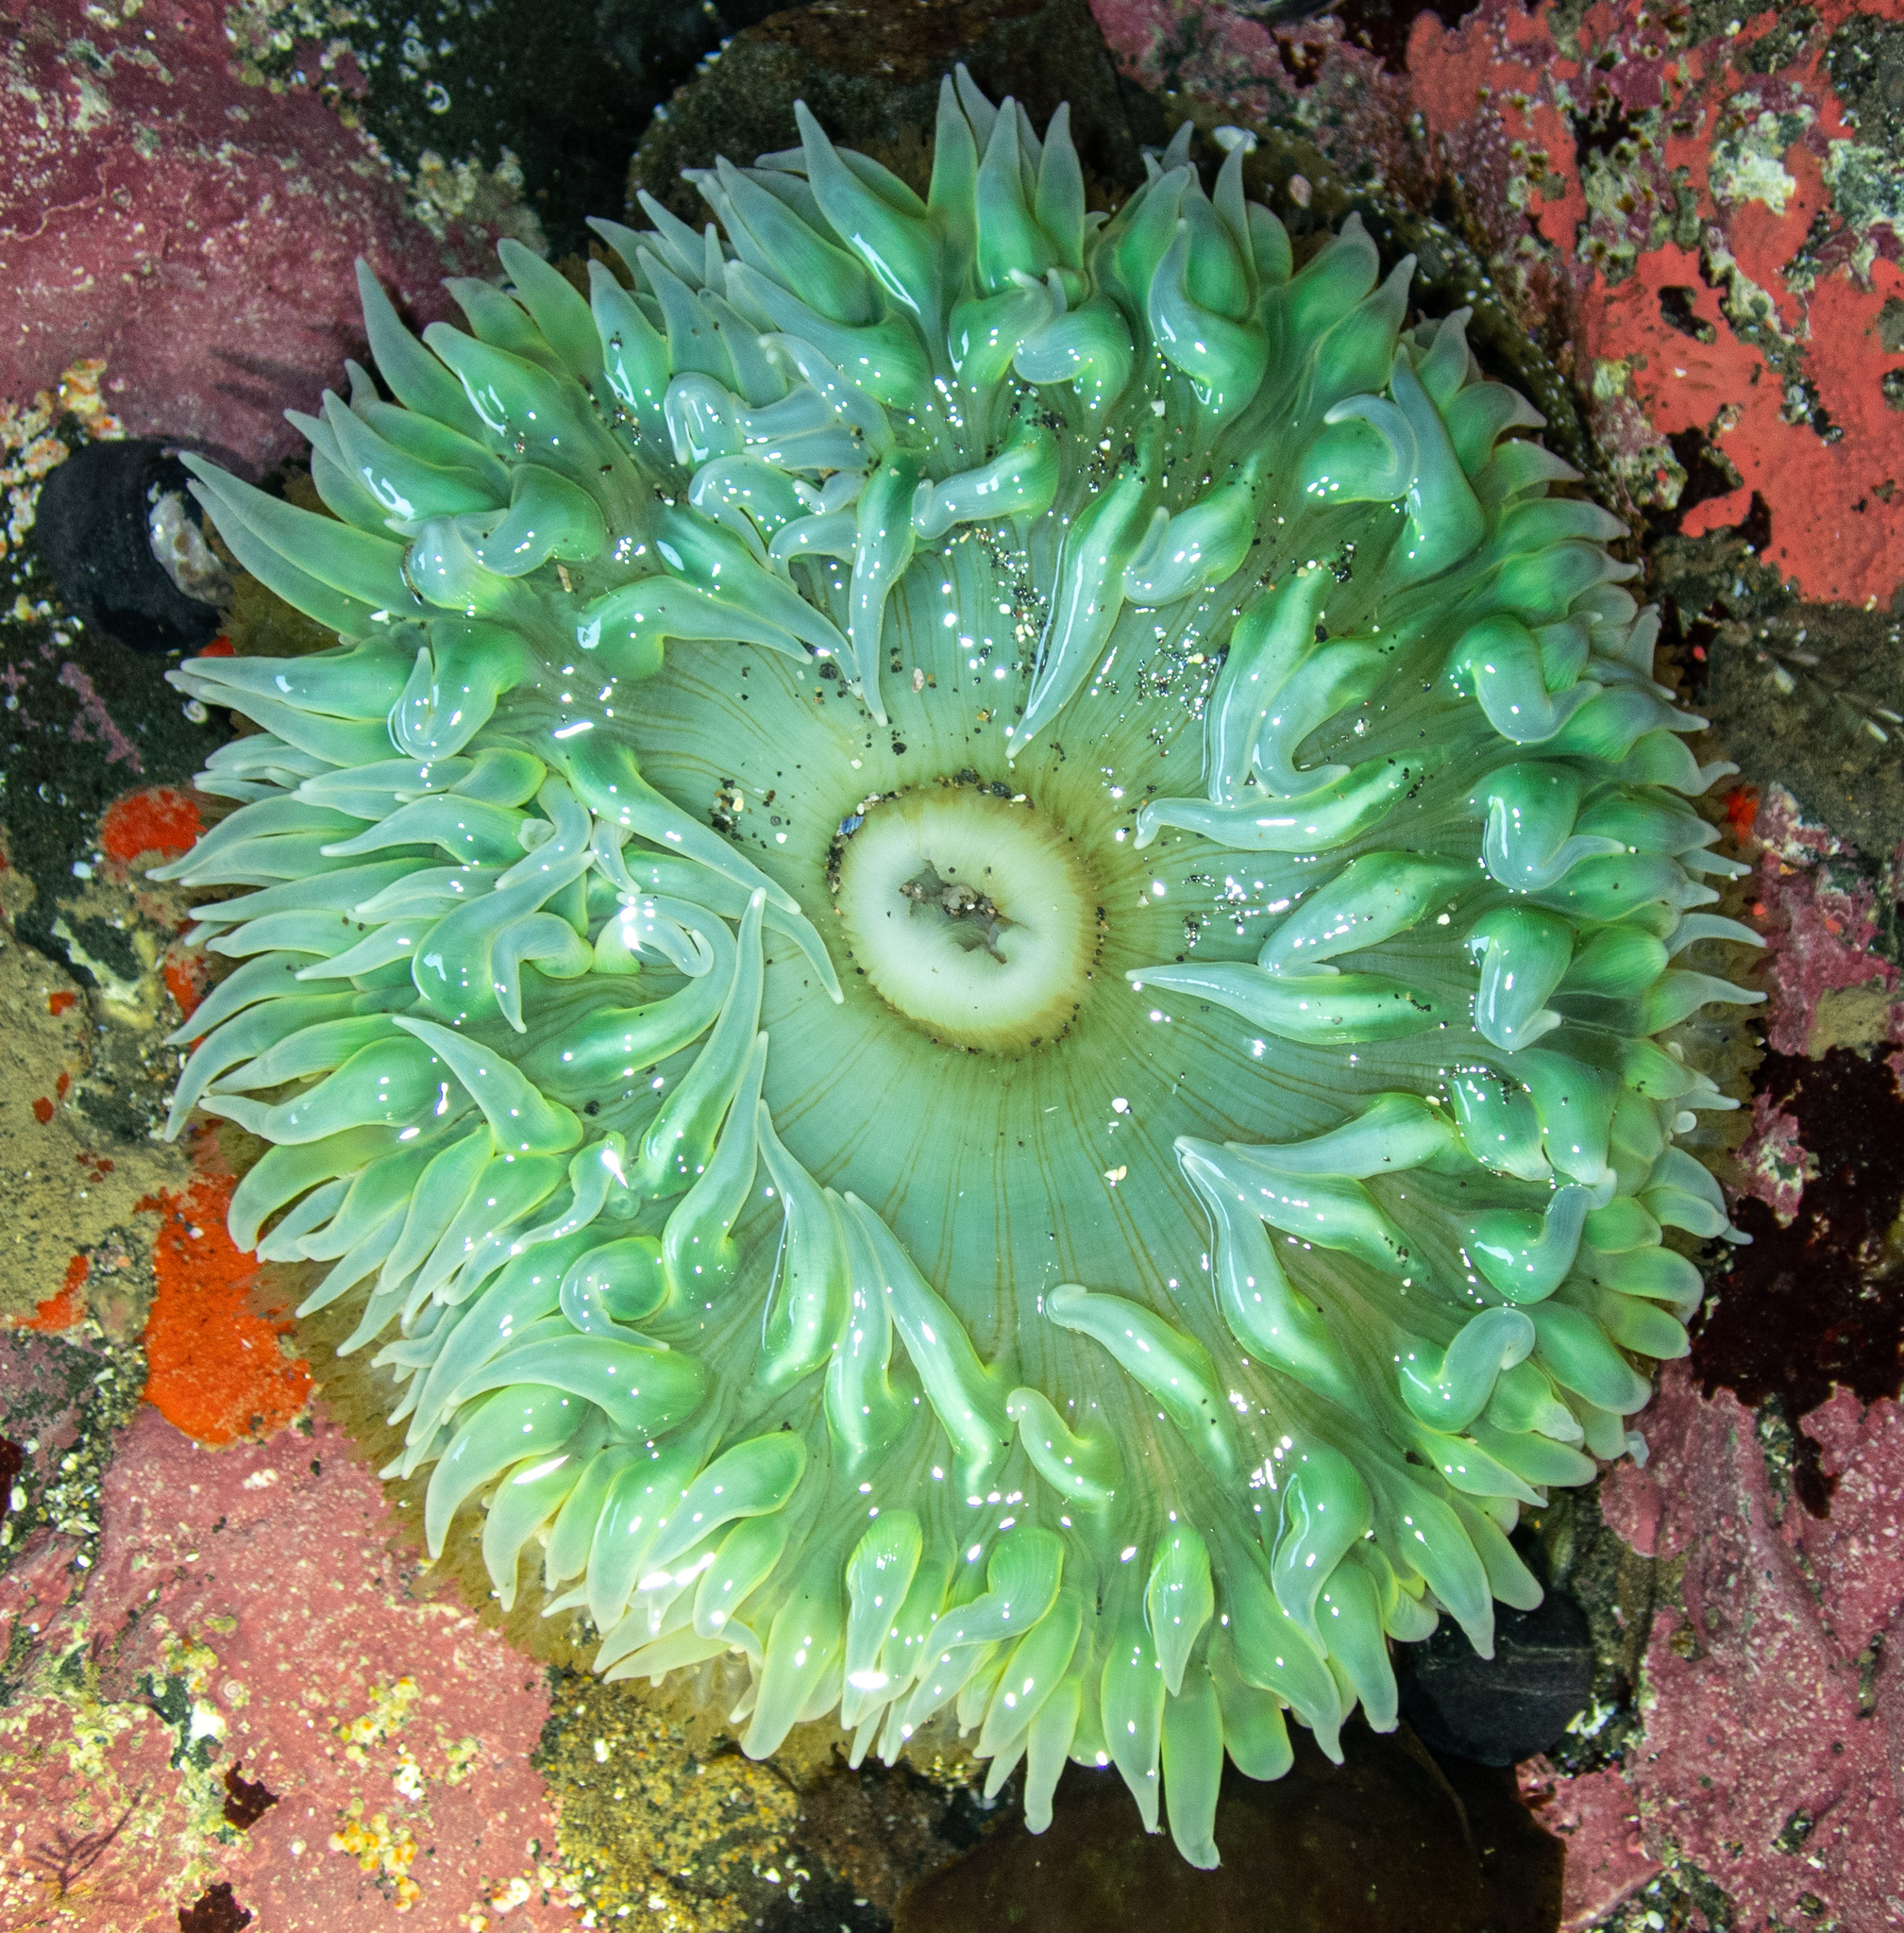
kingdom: Animalia
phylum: Cnidaria
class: Anthozoa
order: Actiniaria
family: Actiniidae
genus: Anthopleura
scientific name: Anthopleura xanthogrammica
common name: Giant green anemone
